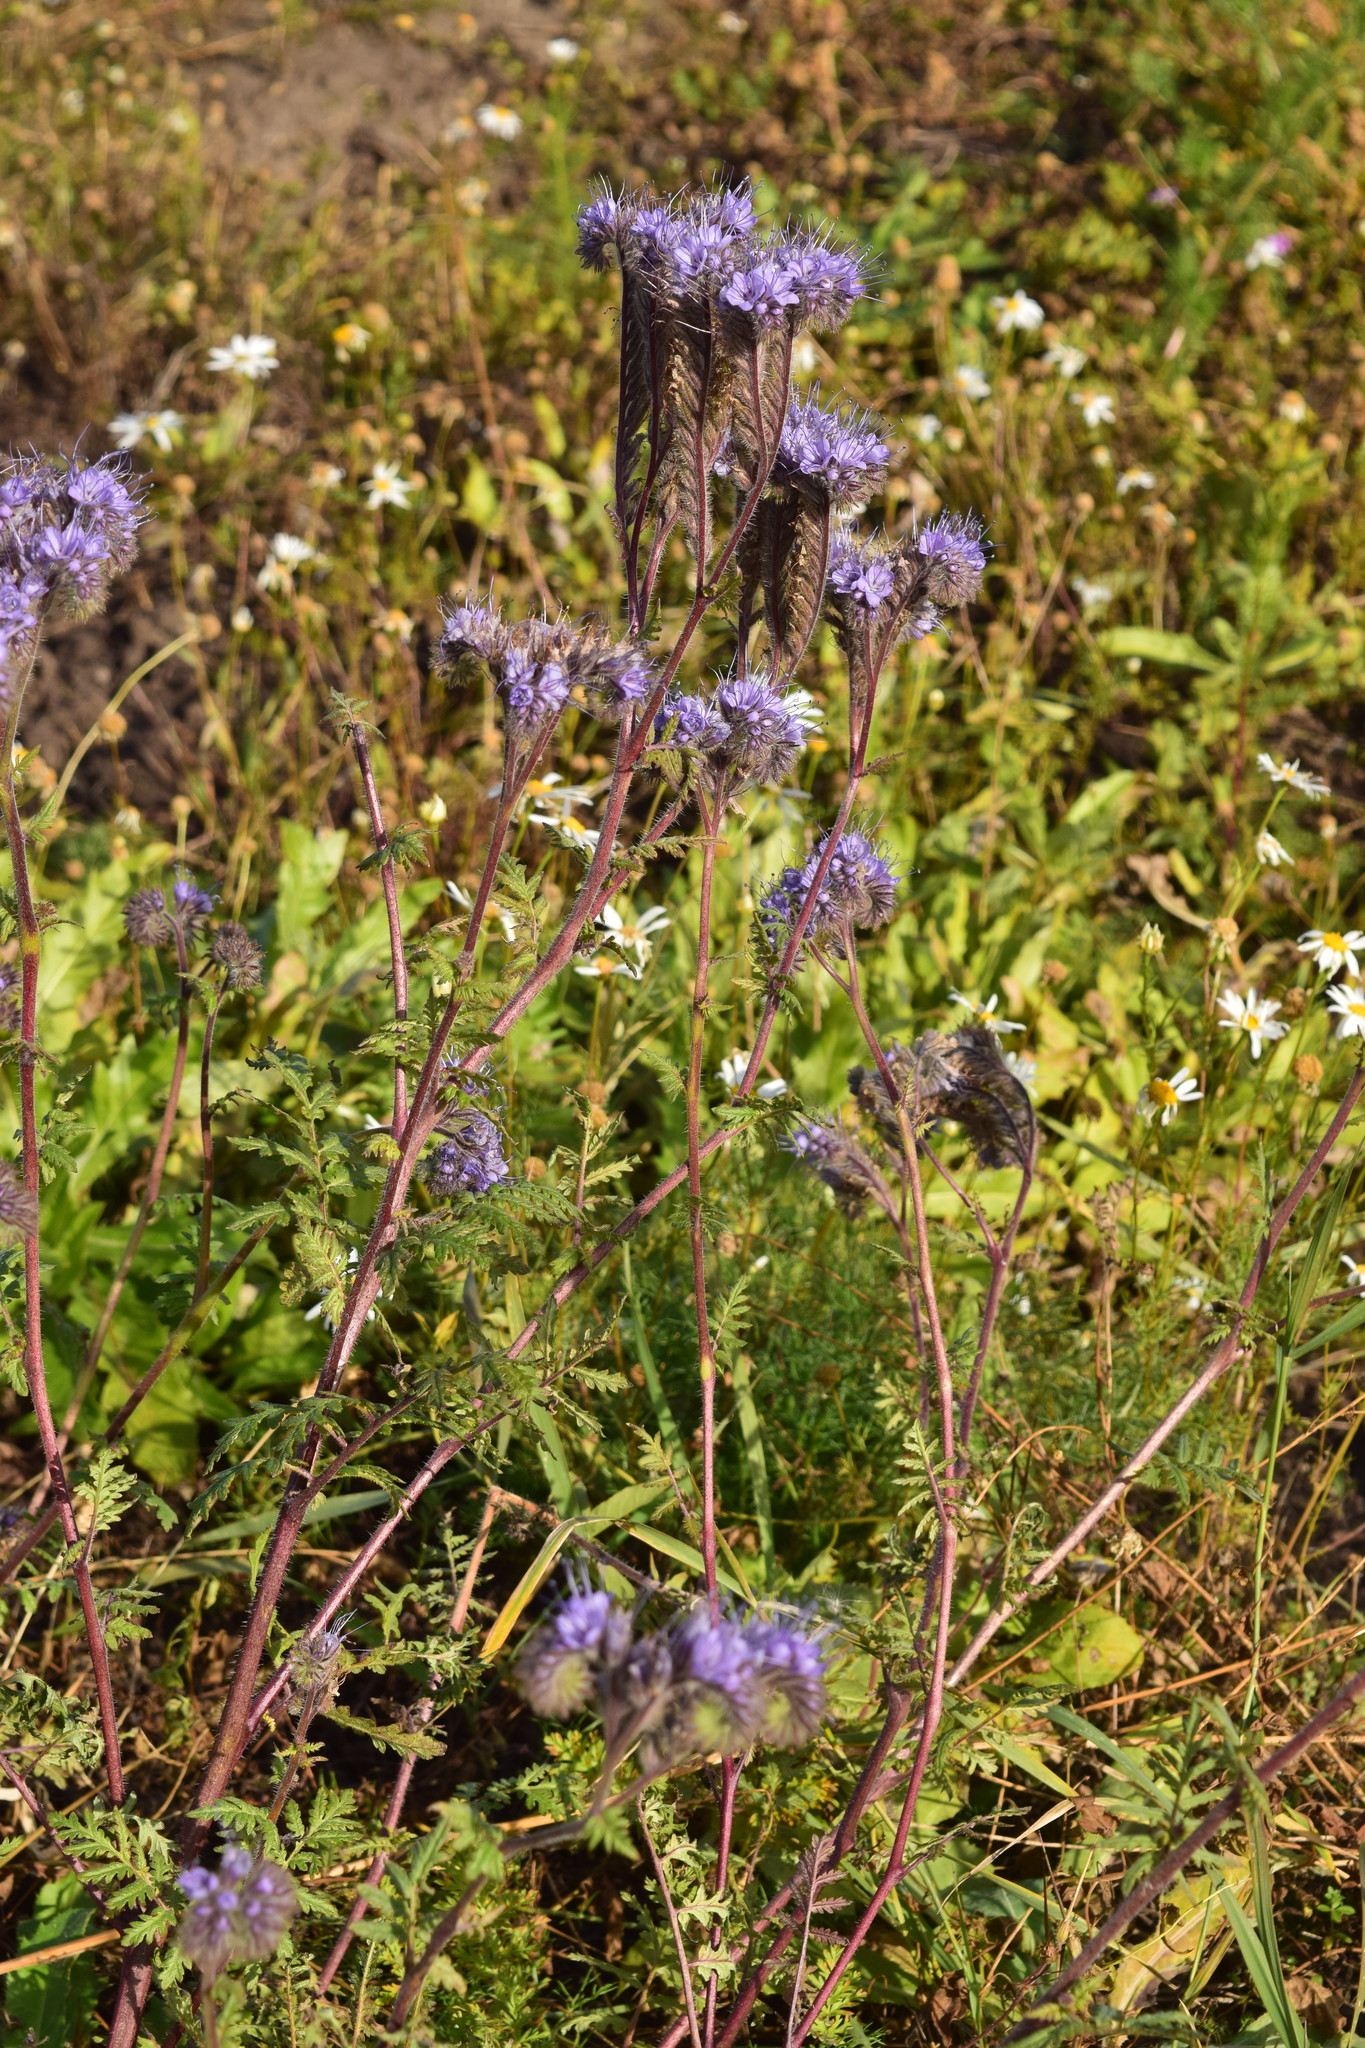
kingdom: Plantae
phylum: Tracheophyta
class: Magnoliopsida
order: Boraginales
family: Hydrophyllaceae
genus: Phacelia
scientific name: Phacelia tanacetifolia
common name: Phacelia
